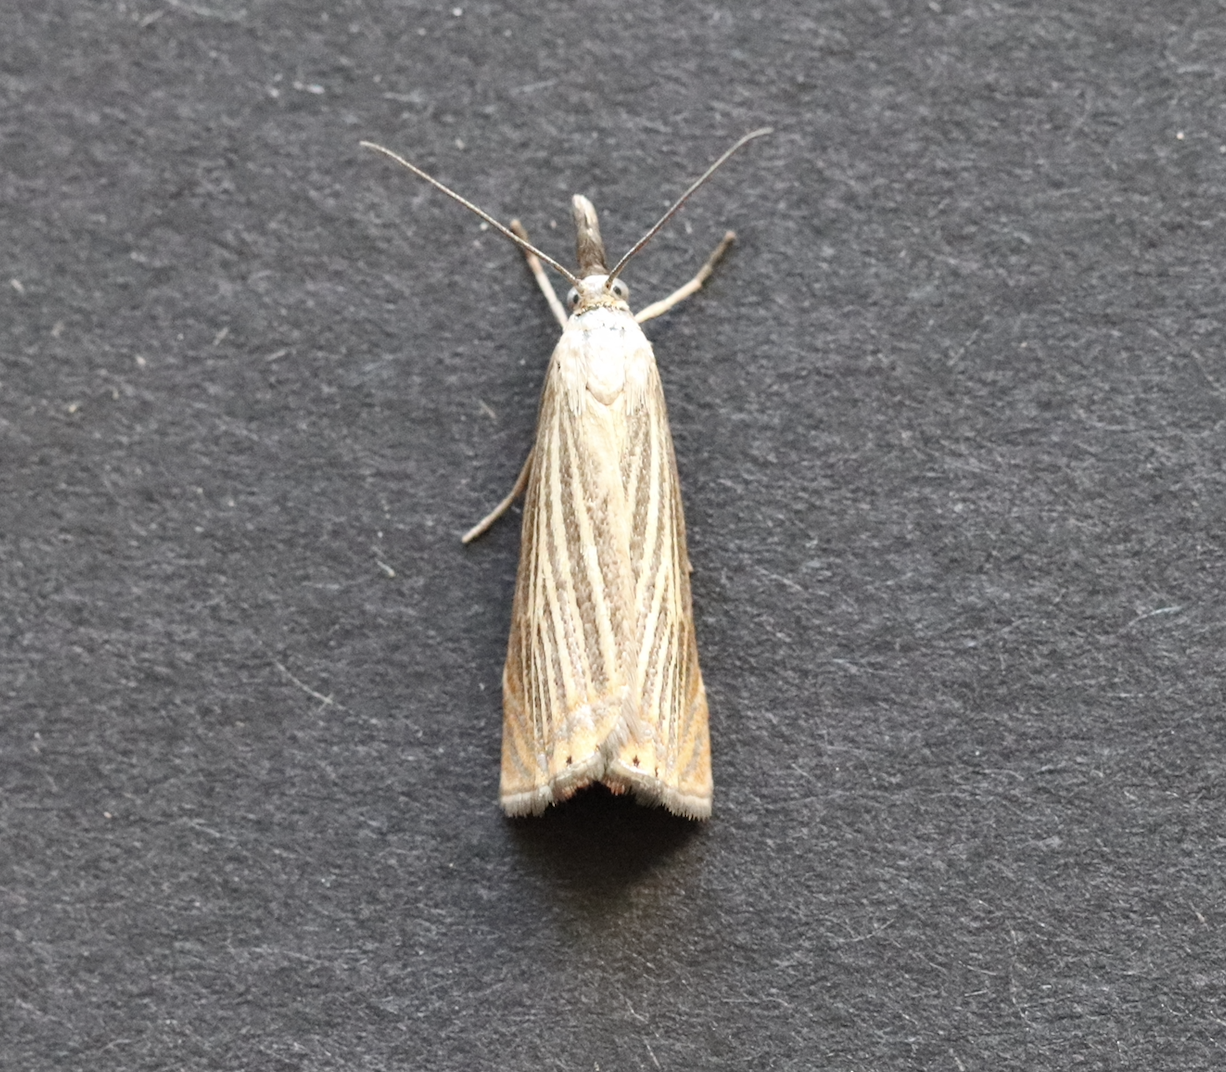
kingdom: Animalia
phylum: Arthropoda
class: Insecta
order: Lepidoptera
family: Crambidae
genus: Chrysoteuchia
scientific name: Chrysoteuchia culmella
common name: Garden grass-veneer
